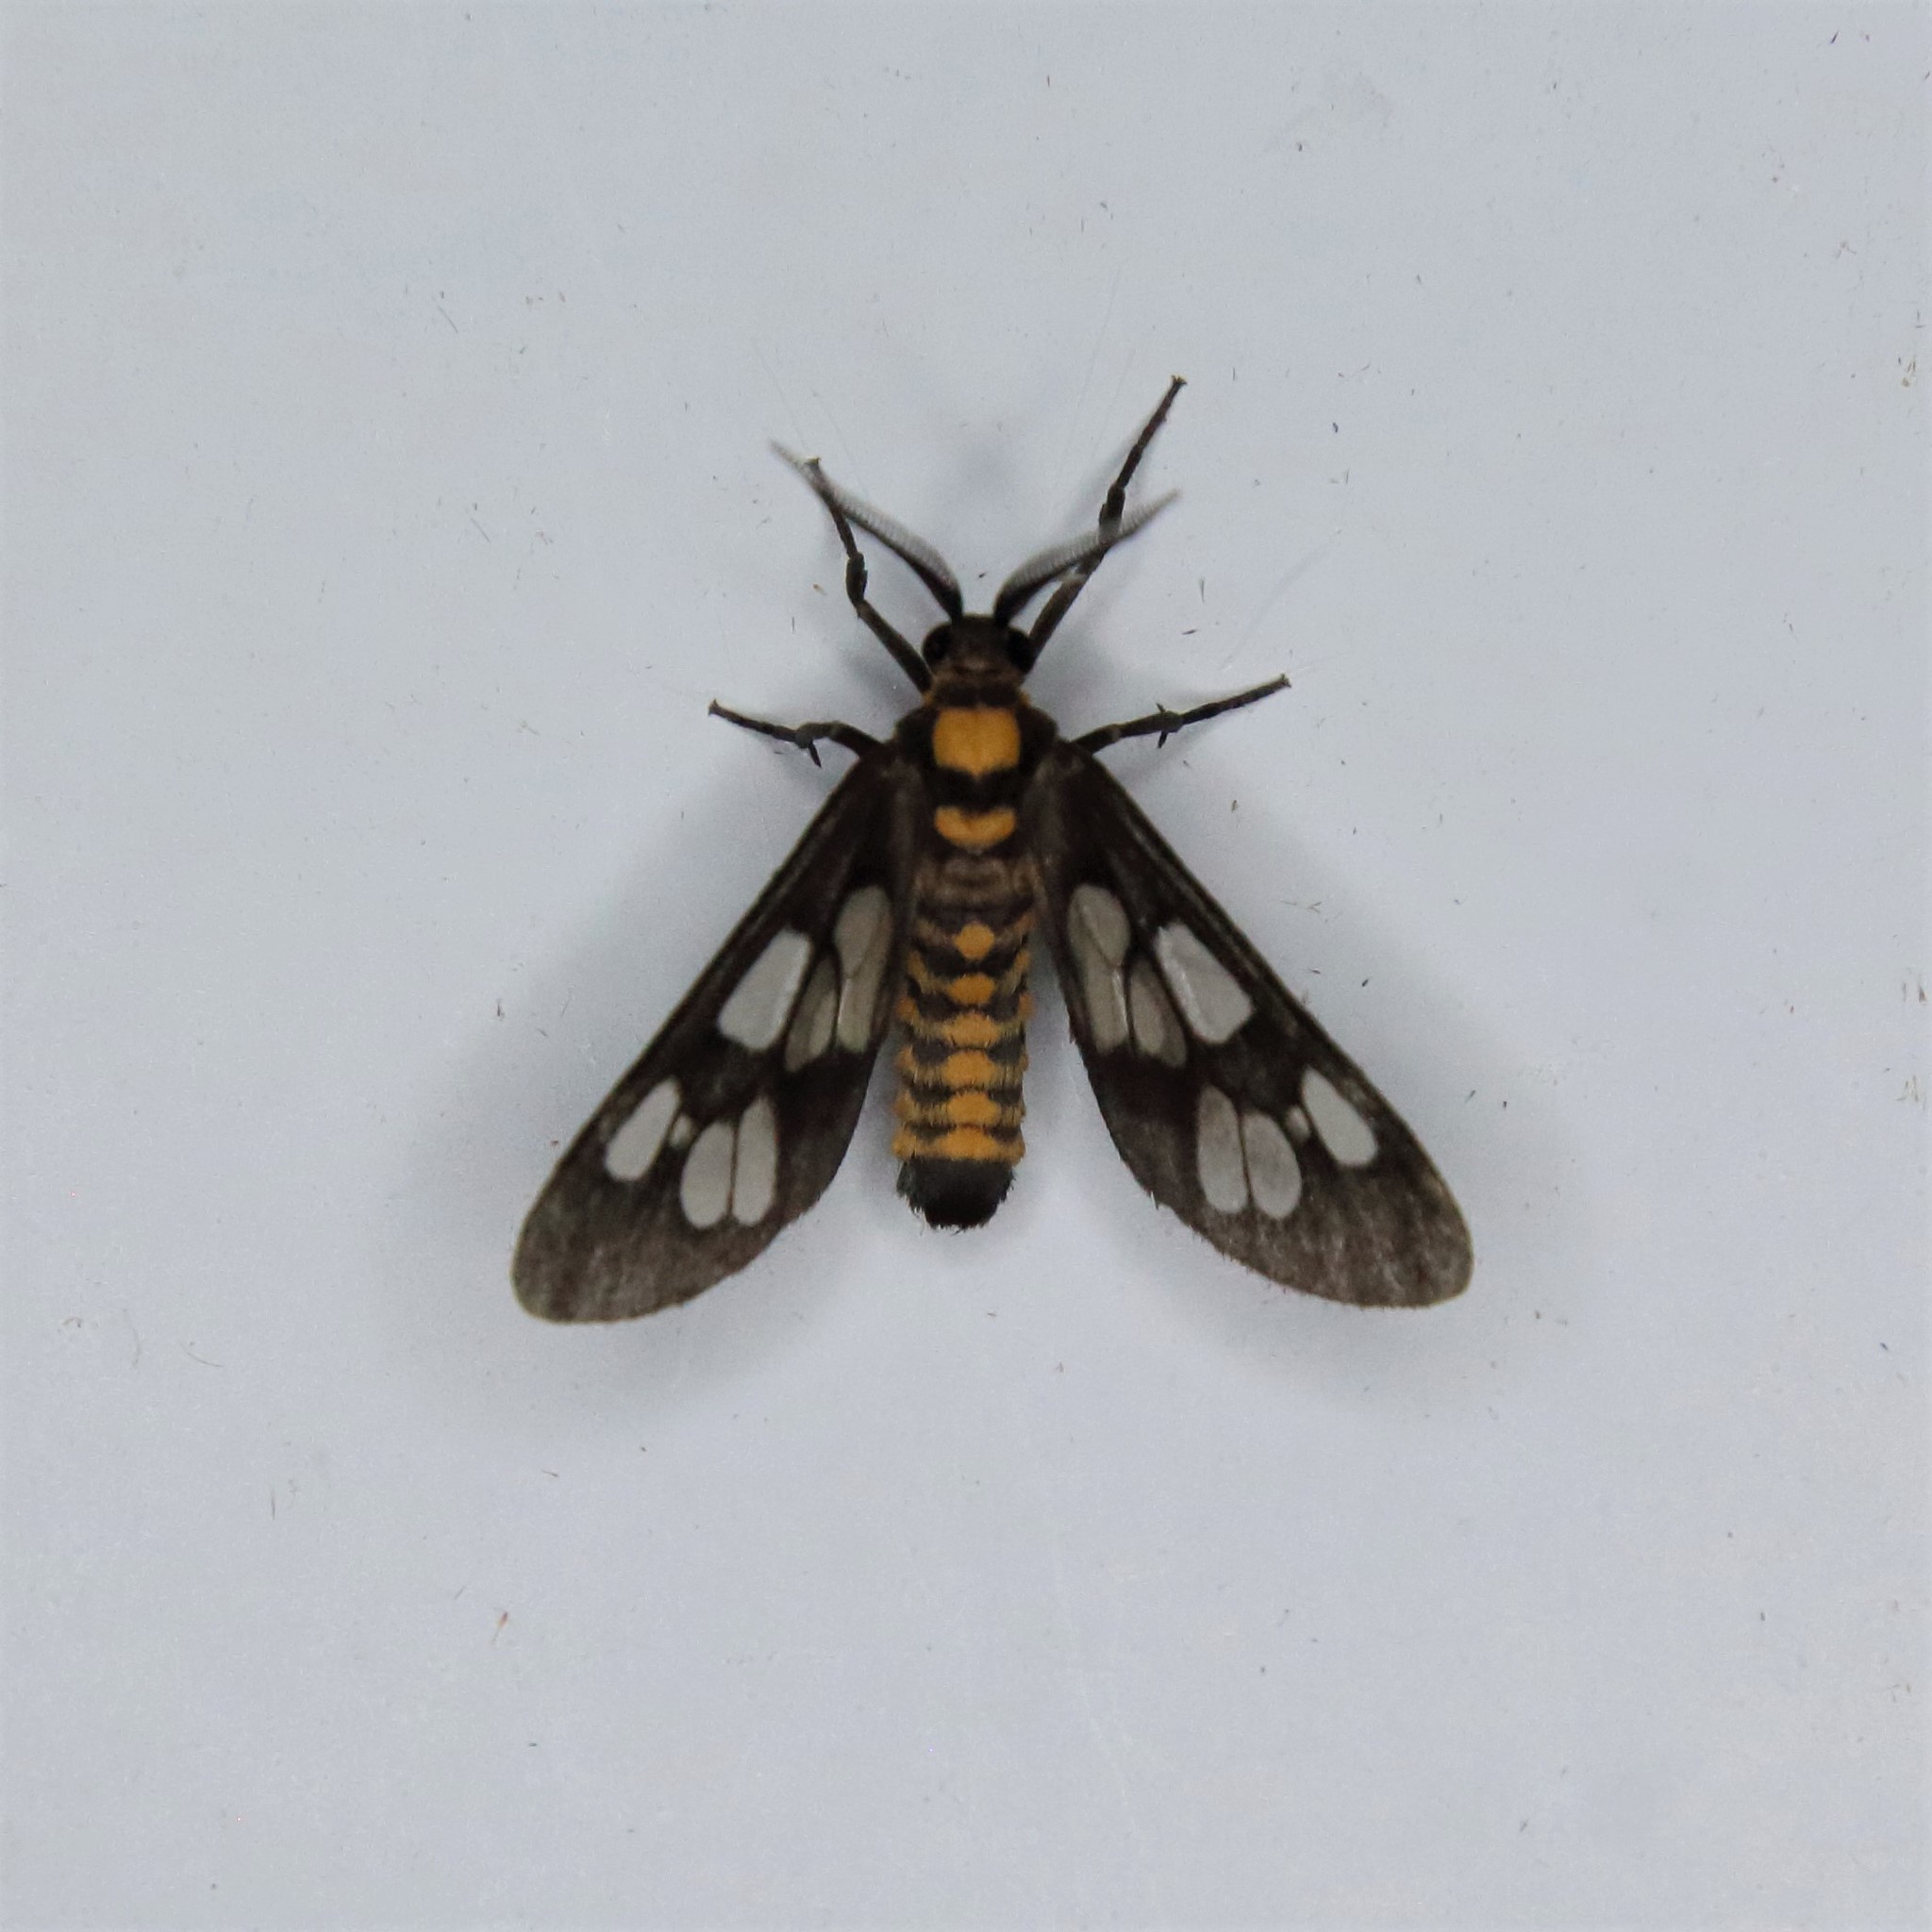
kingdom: Animalia
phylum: Arthropoda
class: Insecta
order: Lepidoptera
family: Erebidae
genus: Eressa
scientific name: Eressa confinis
